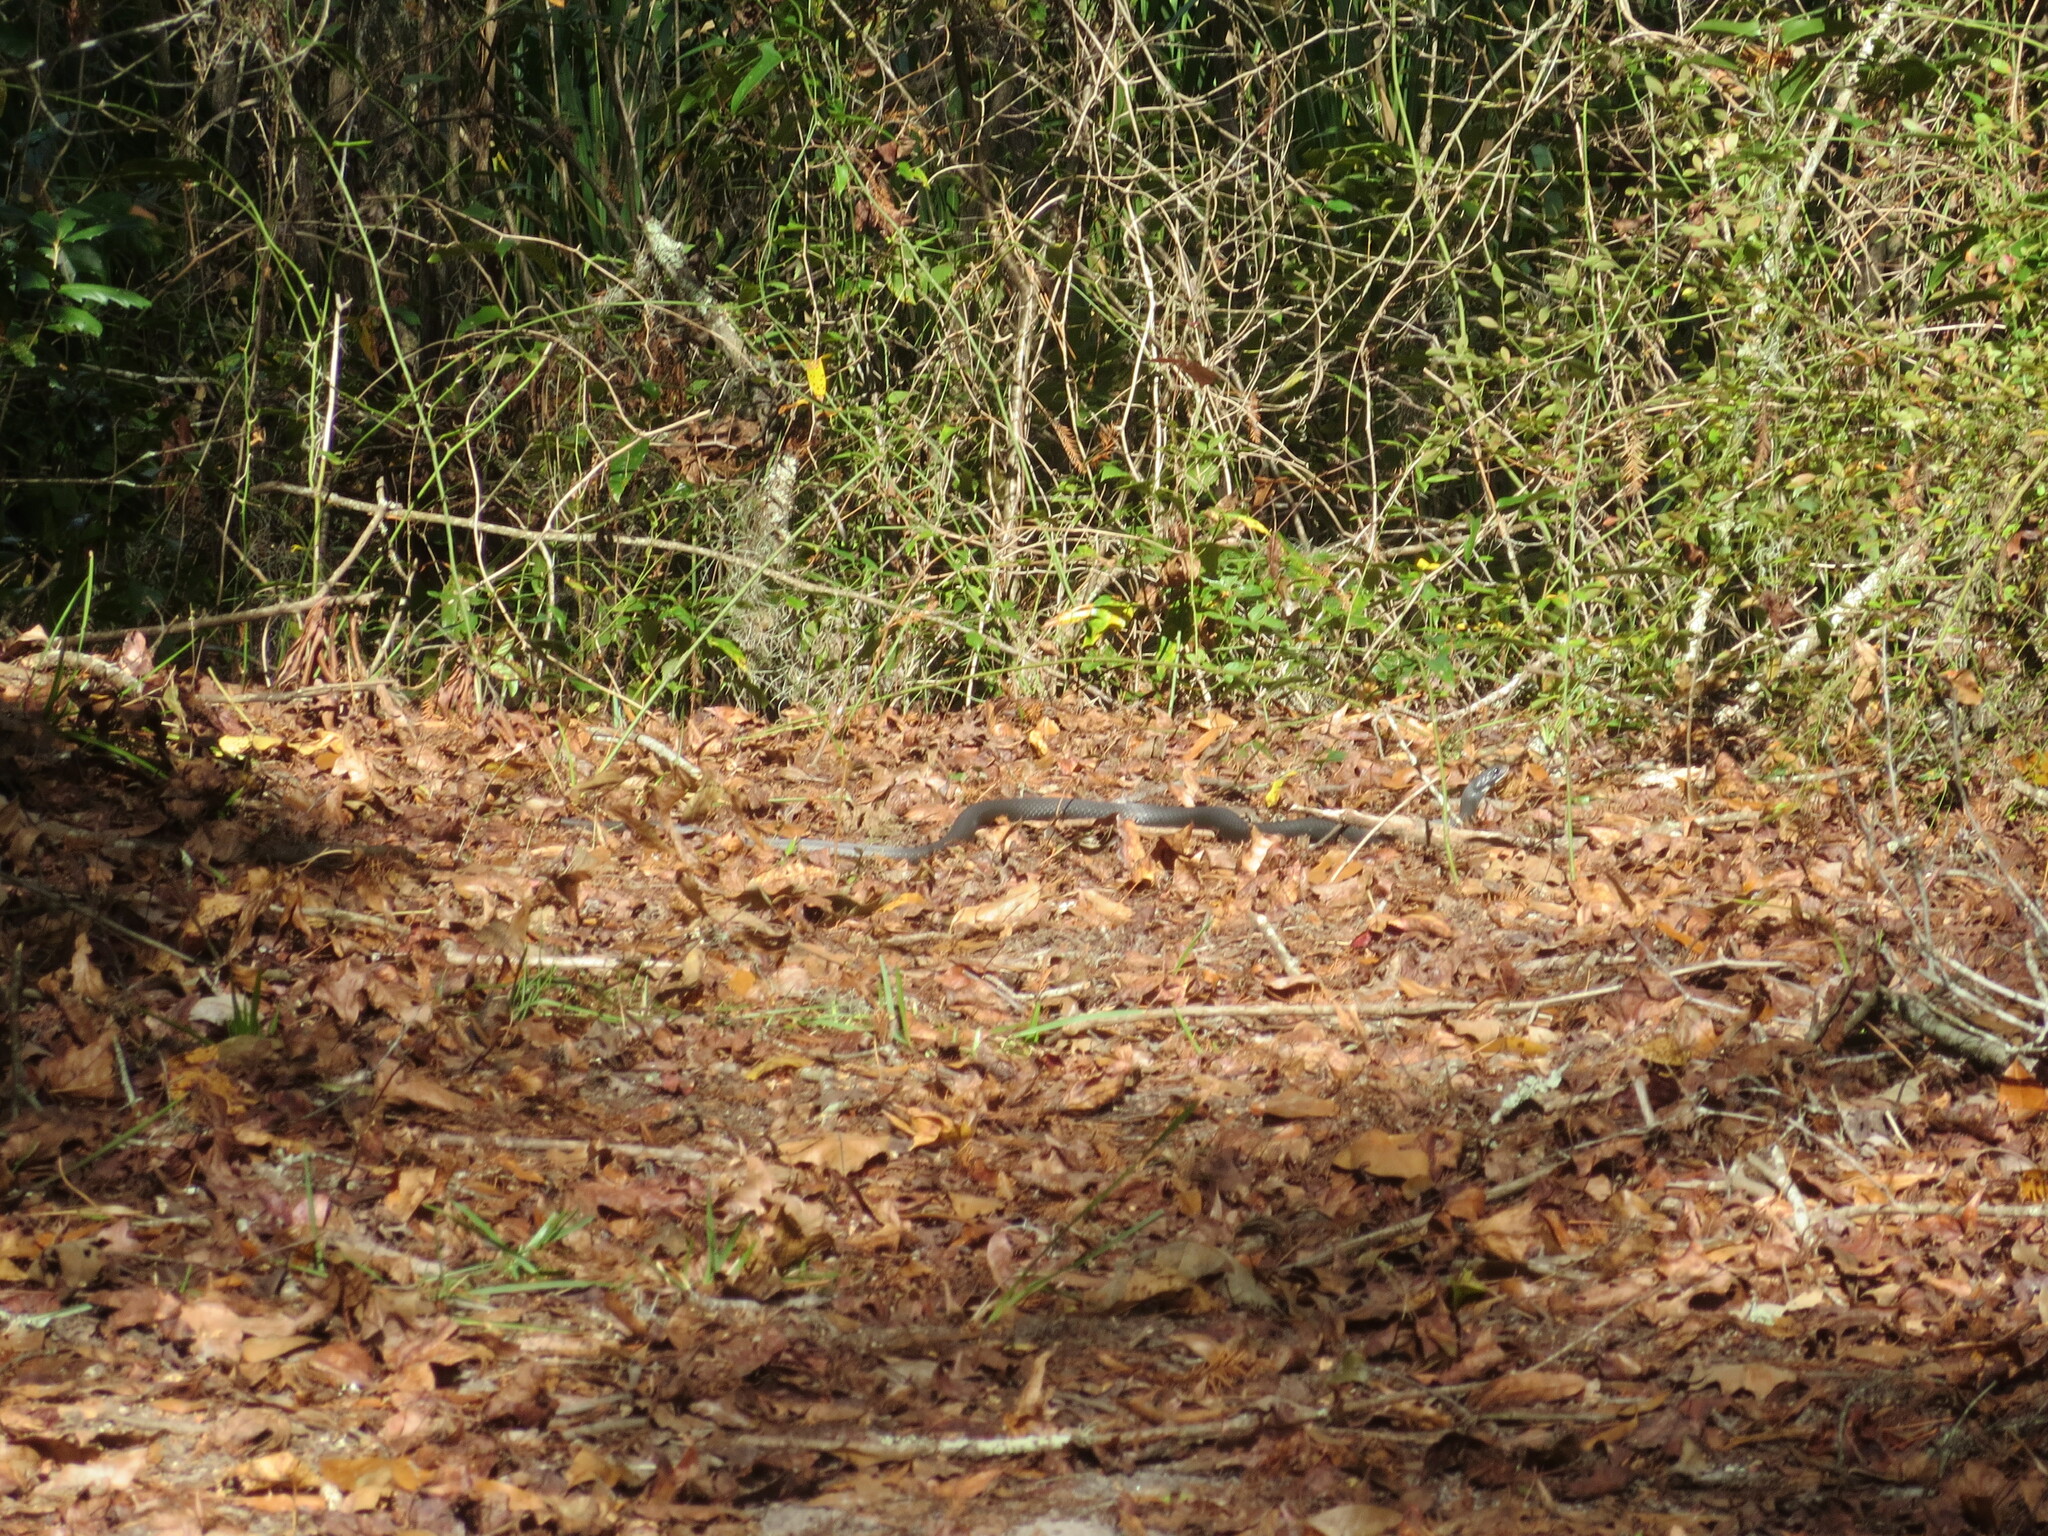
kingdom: Animalia
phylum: Chordata
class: Squamata
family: Colubridae
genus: Coluber
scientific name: Coluber constrictor
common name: Eastern racer
